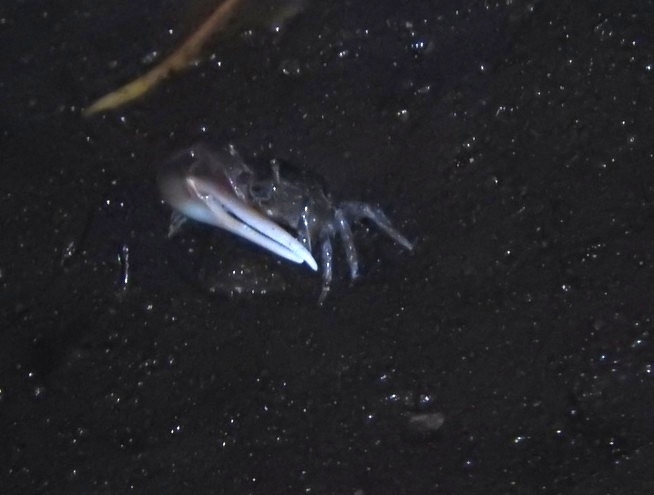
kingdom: Animalia
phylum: Arthropoda
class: Malacostraca
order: Decapoda
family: Ocypodidae
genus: Minuca
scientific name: Minuca vocator
